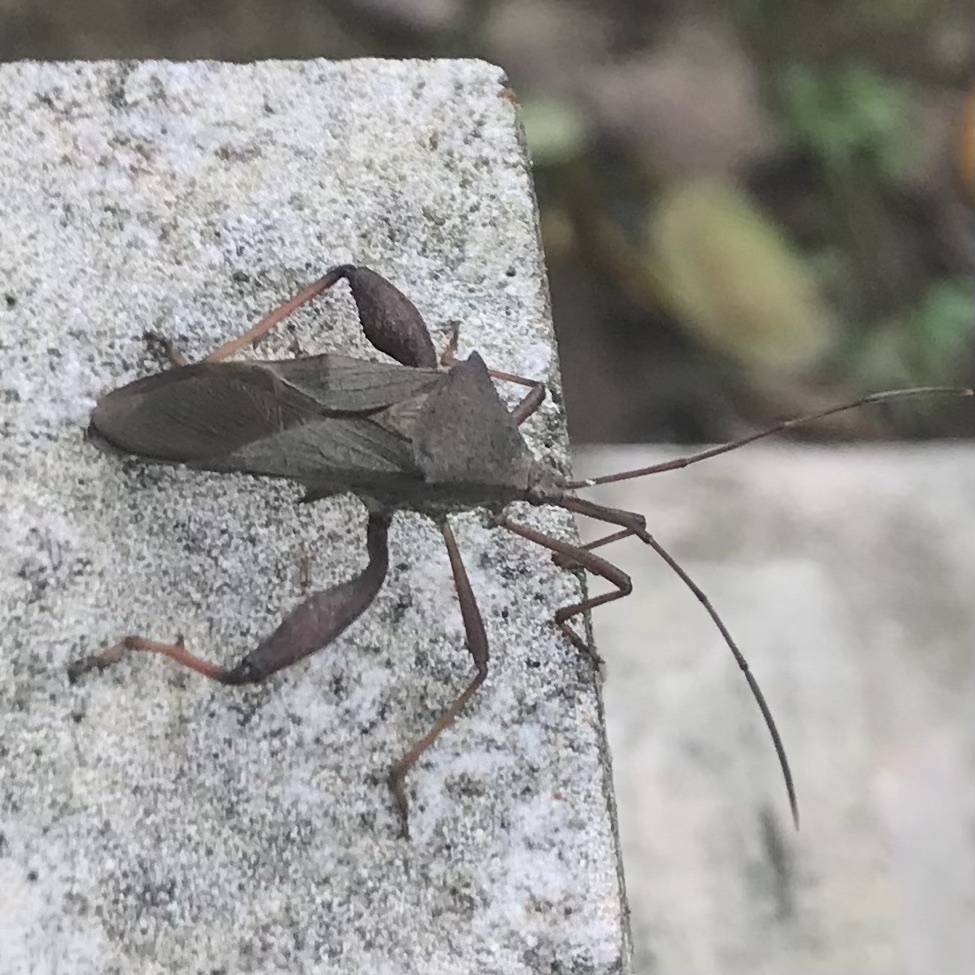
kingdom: Animalia
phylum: Arthropoda
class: Insecta
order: Hemiptera
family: Coreidae
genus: Mictis
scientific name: Mictis longicornis
